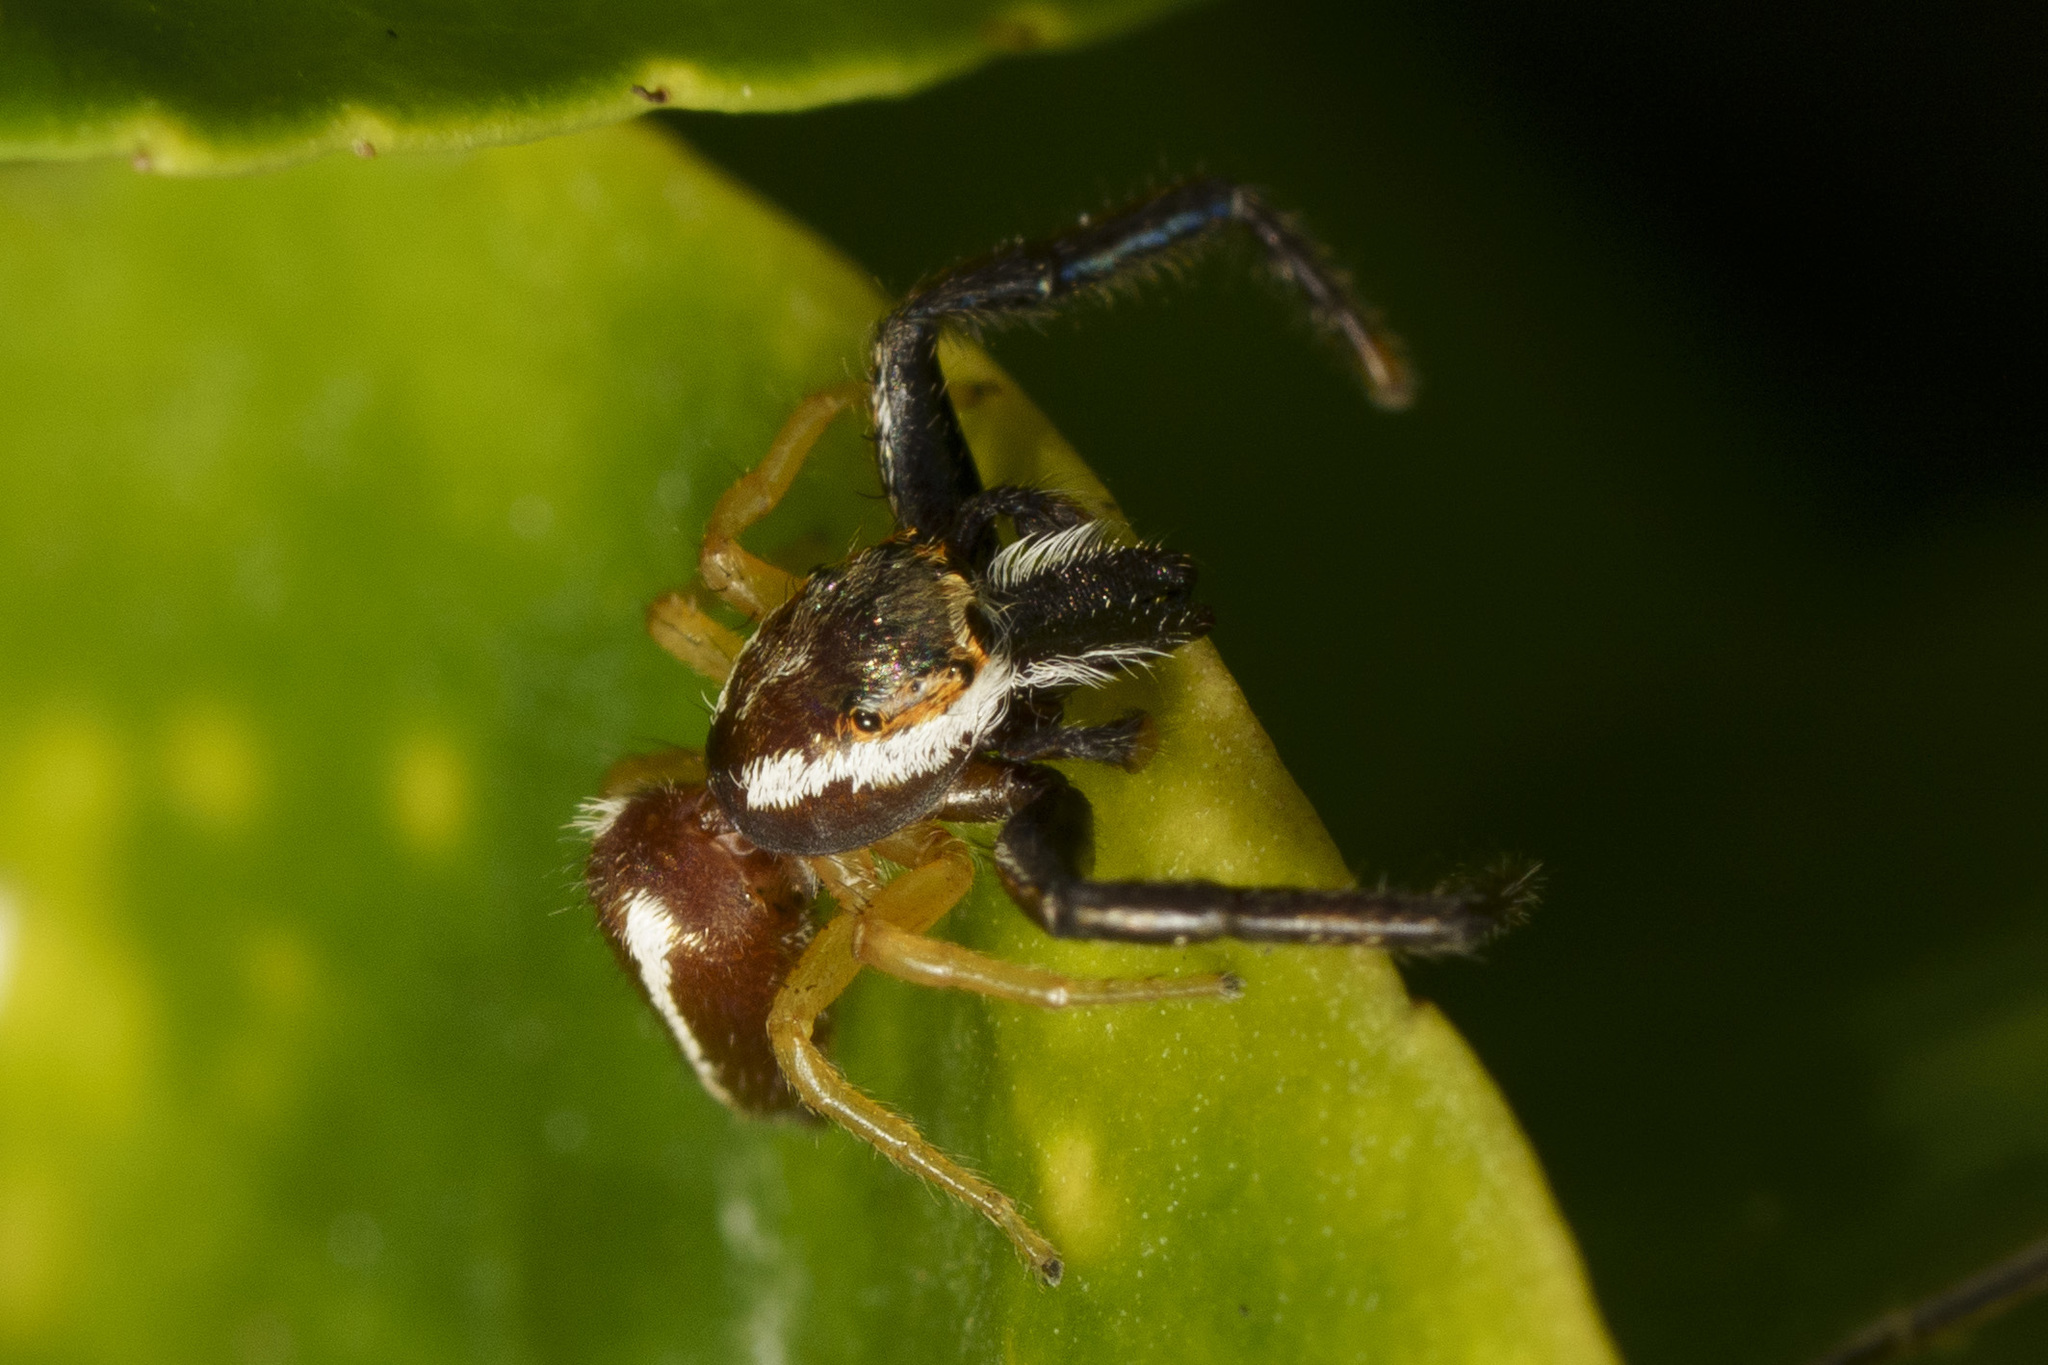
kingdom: Animalia
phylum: Arthropoda
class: Arachnida
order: Araneae
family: Salticidae
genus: Hentzia
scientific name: Hentzia palmarum
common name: Common hentz jumping spider
